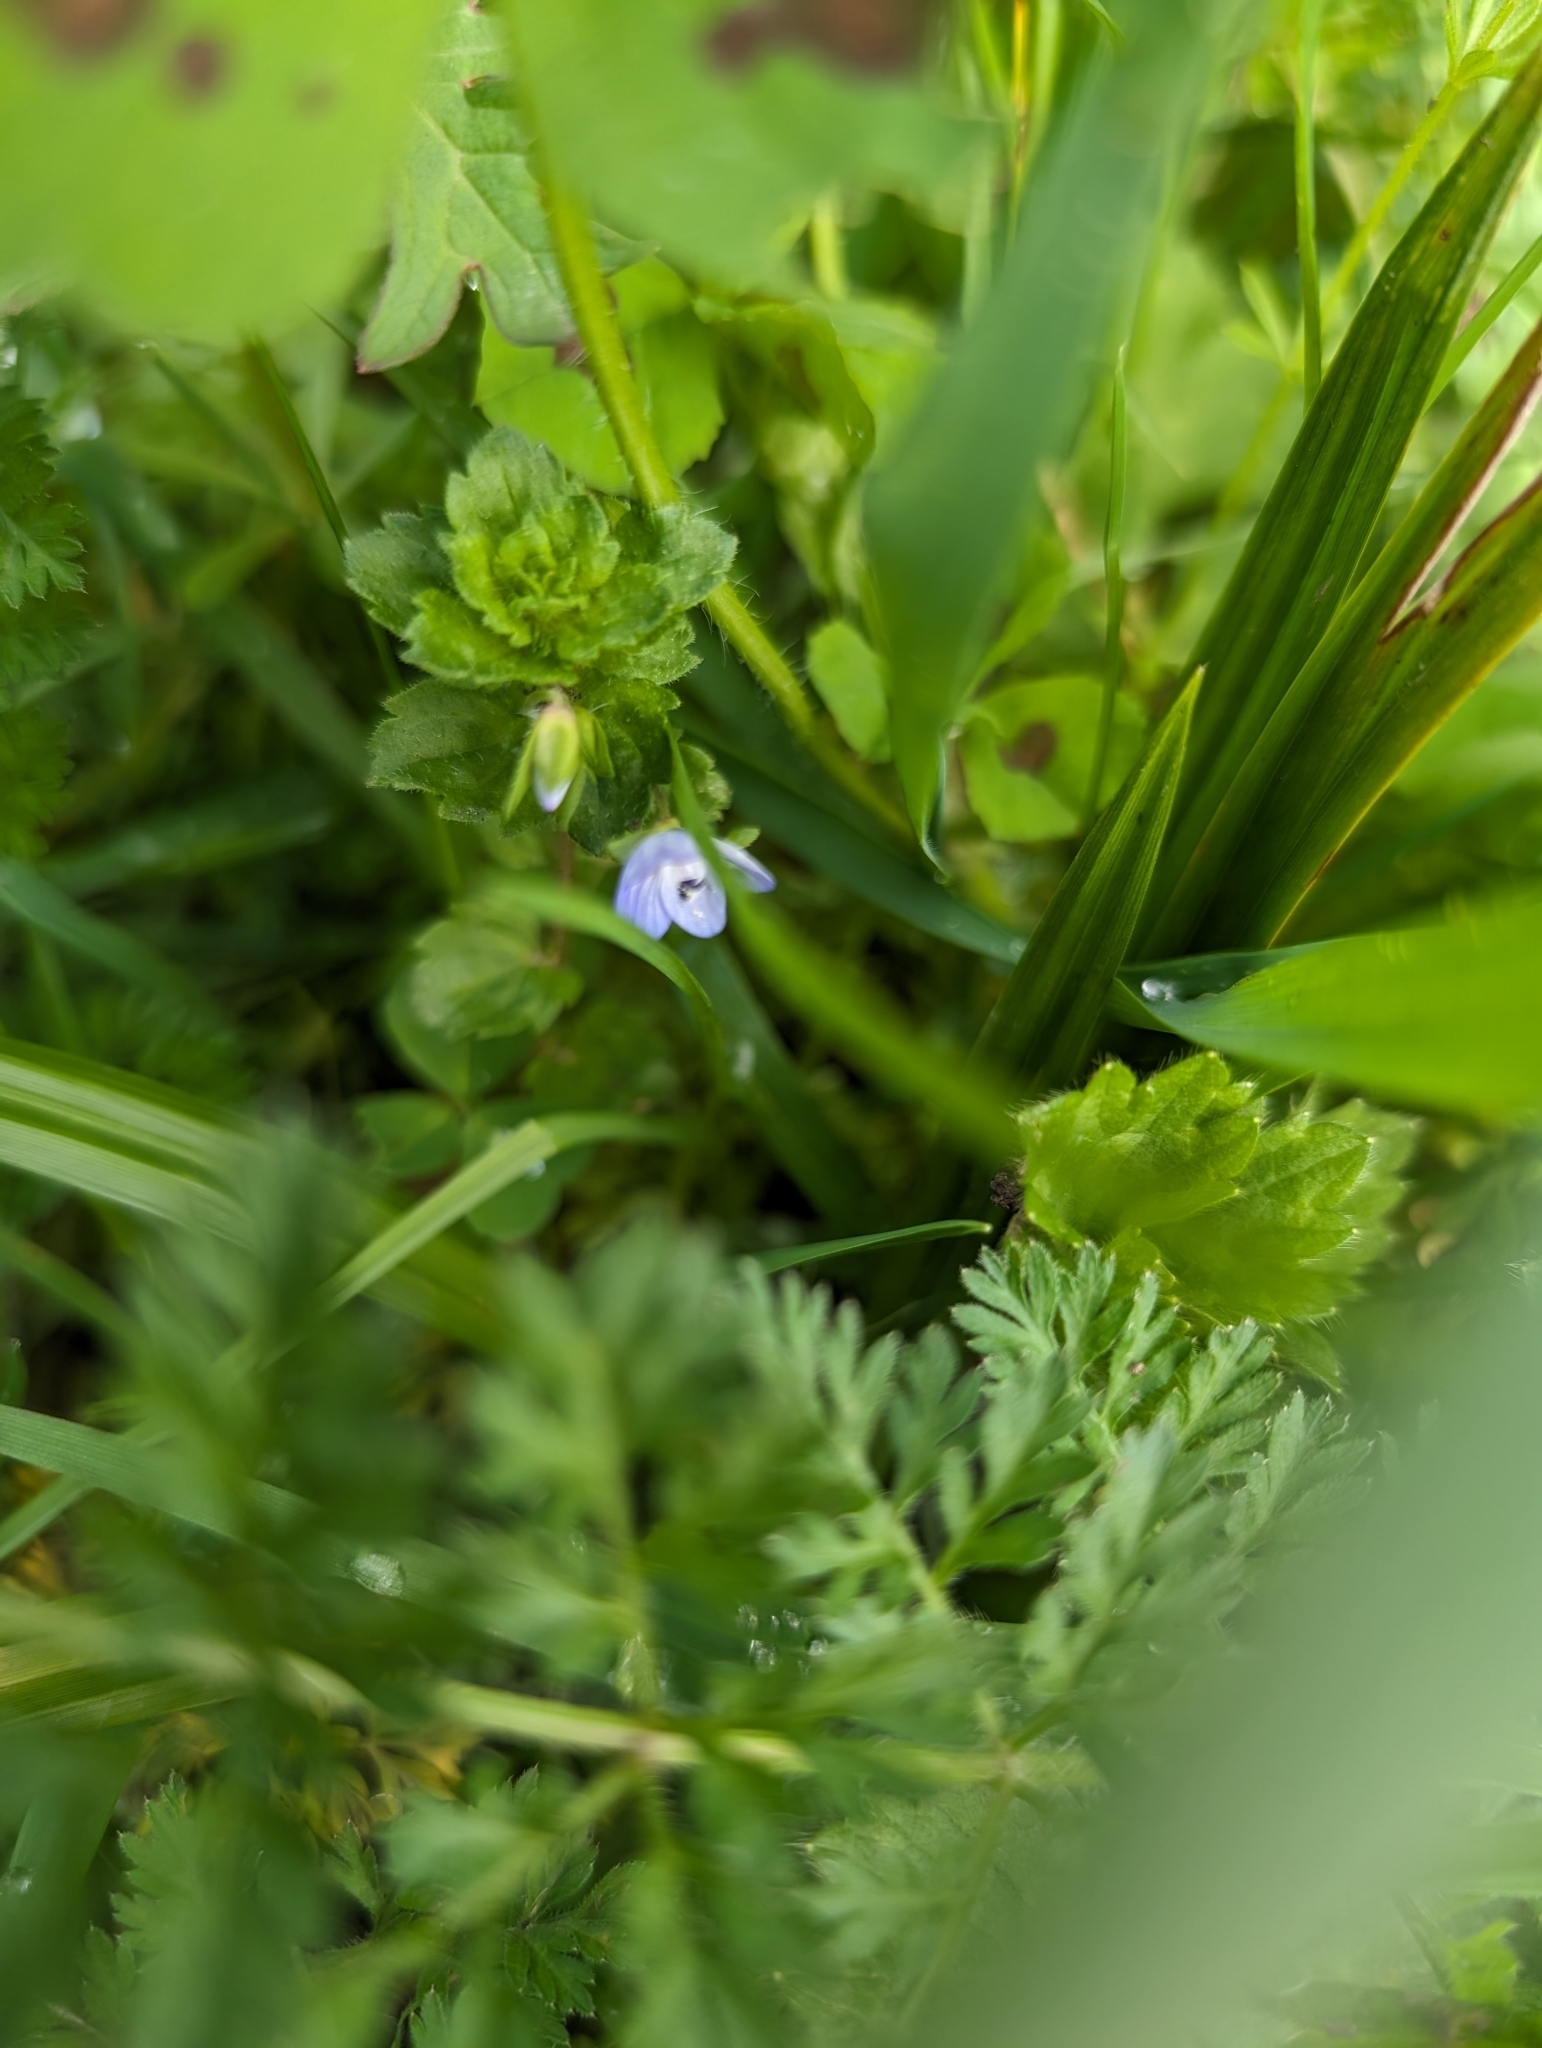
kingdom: Plantae
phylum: Tracheophyta
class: Magnoliopsida
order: Lamiales
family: Plantaginaceae
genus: Veronica
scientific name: Veronica persica
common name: Common field-speedwell
